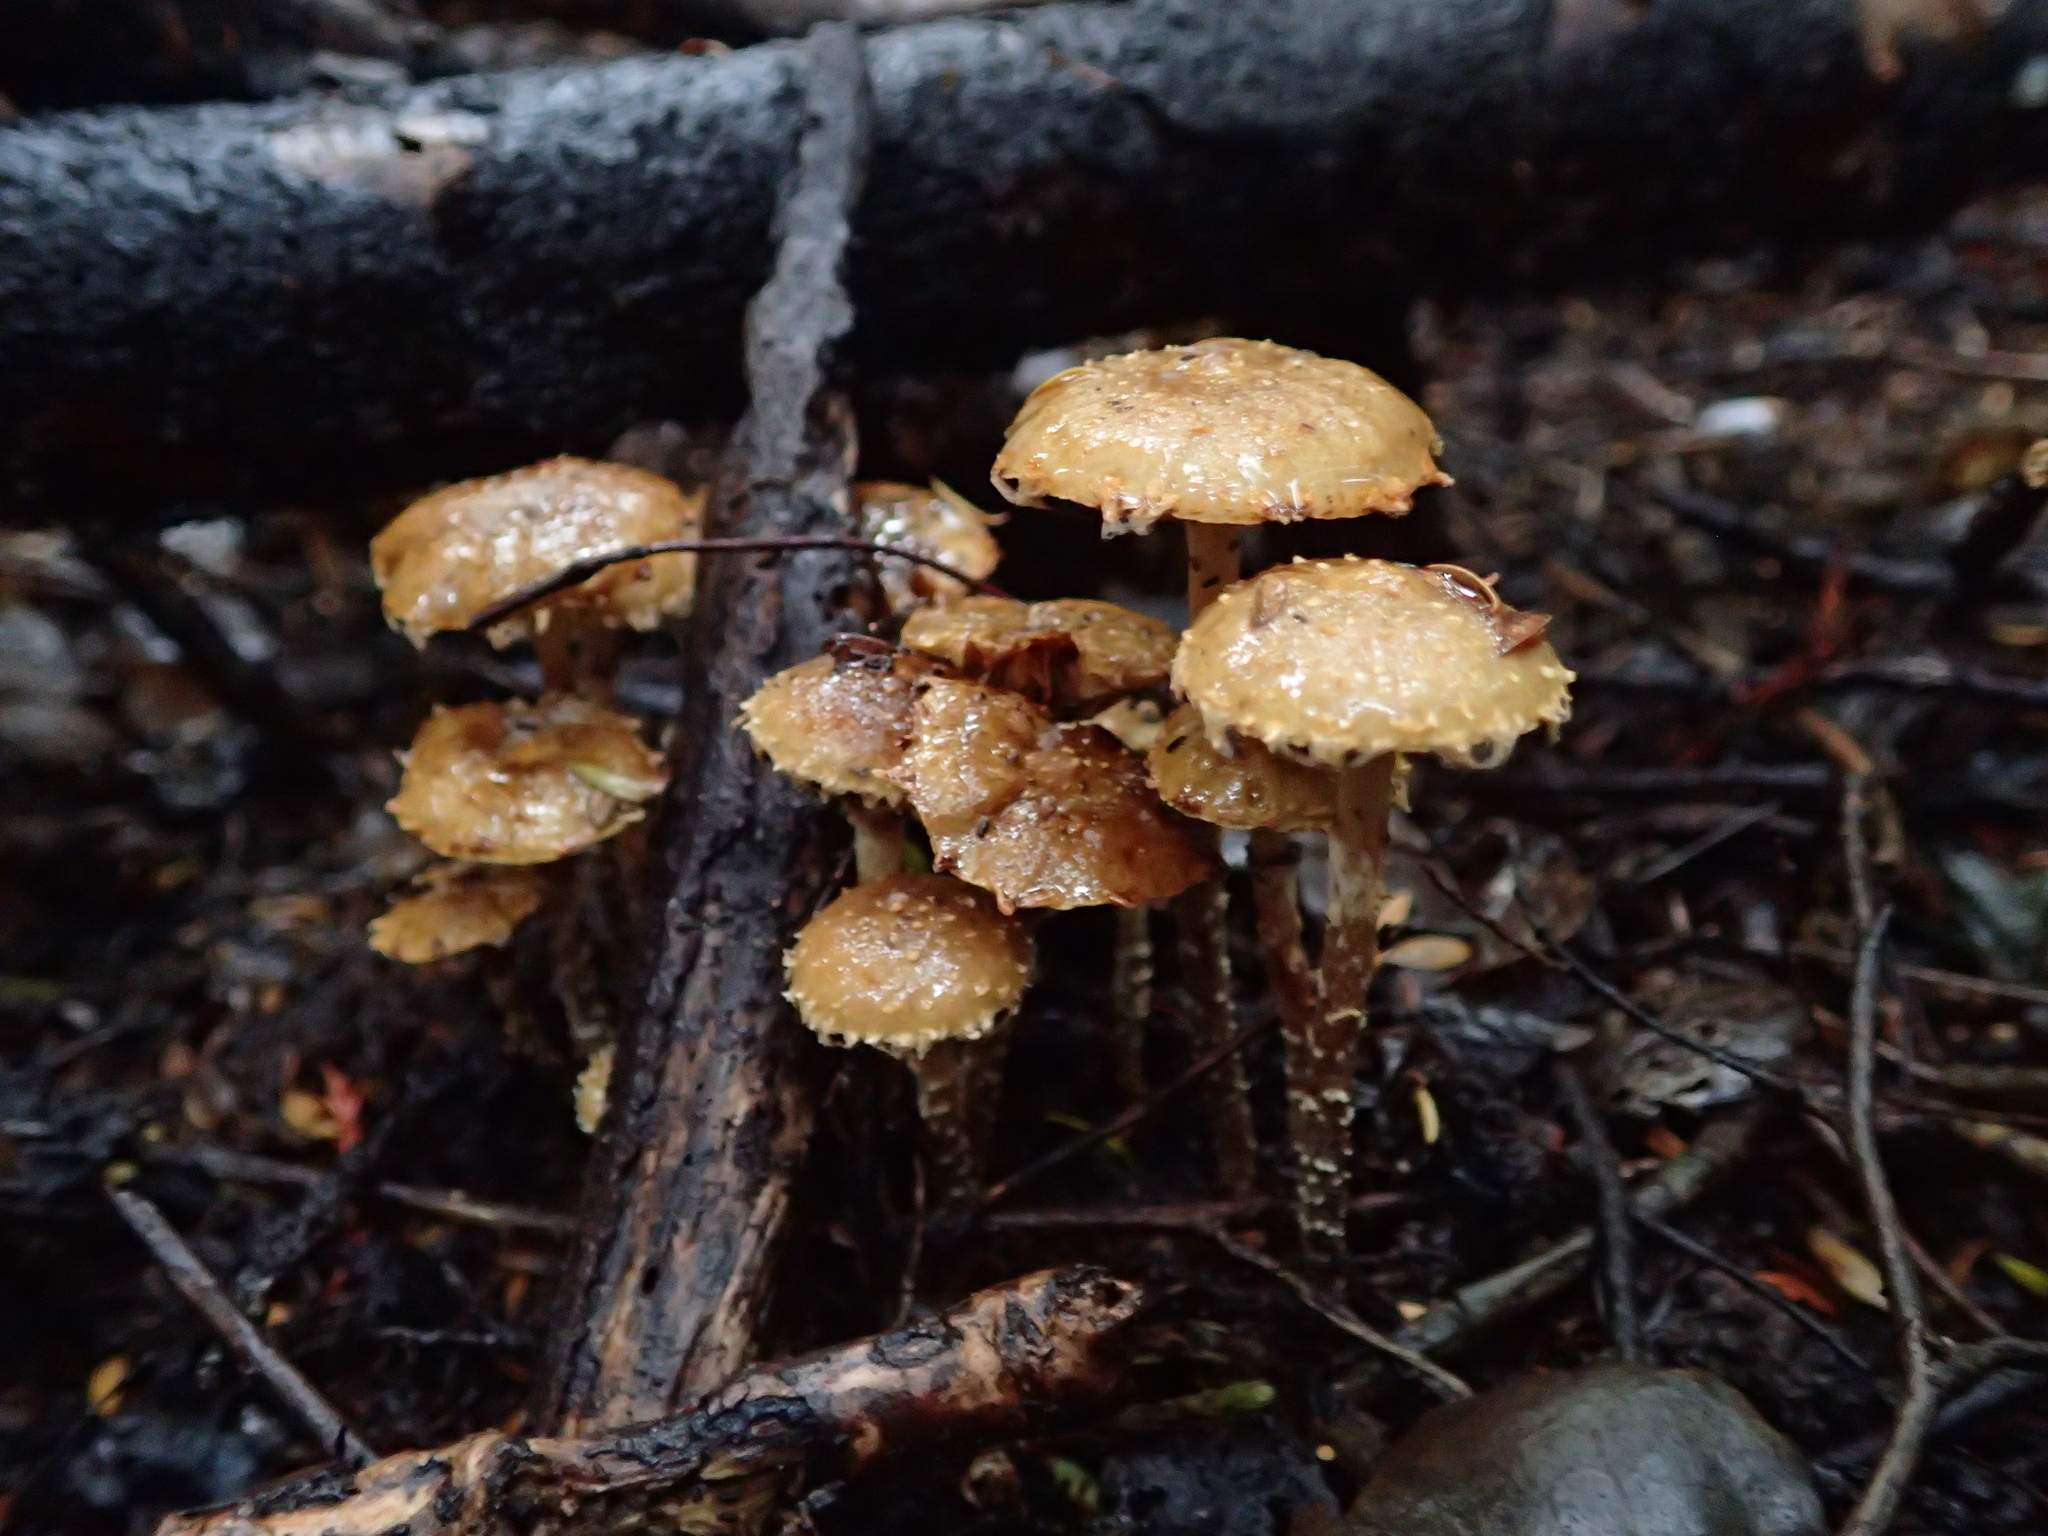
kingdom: Fungi
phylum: Basidiomycota
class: Agaricomycetes
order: Agaricales
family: Strophariaceae
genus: Pholiota
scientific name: Pholiota subflammans
